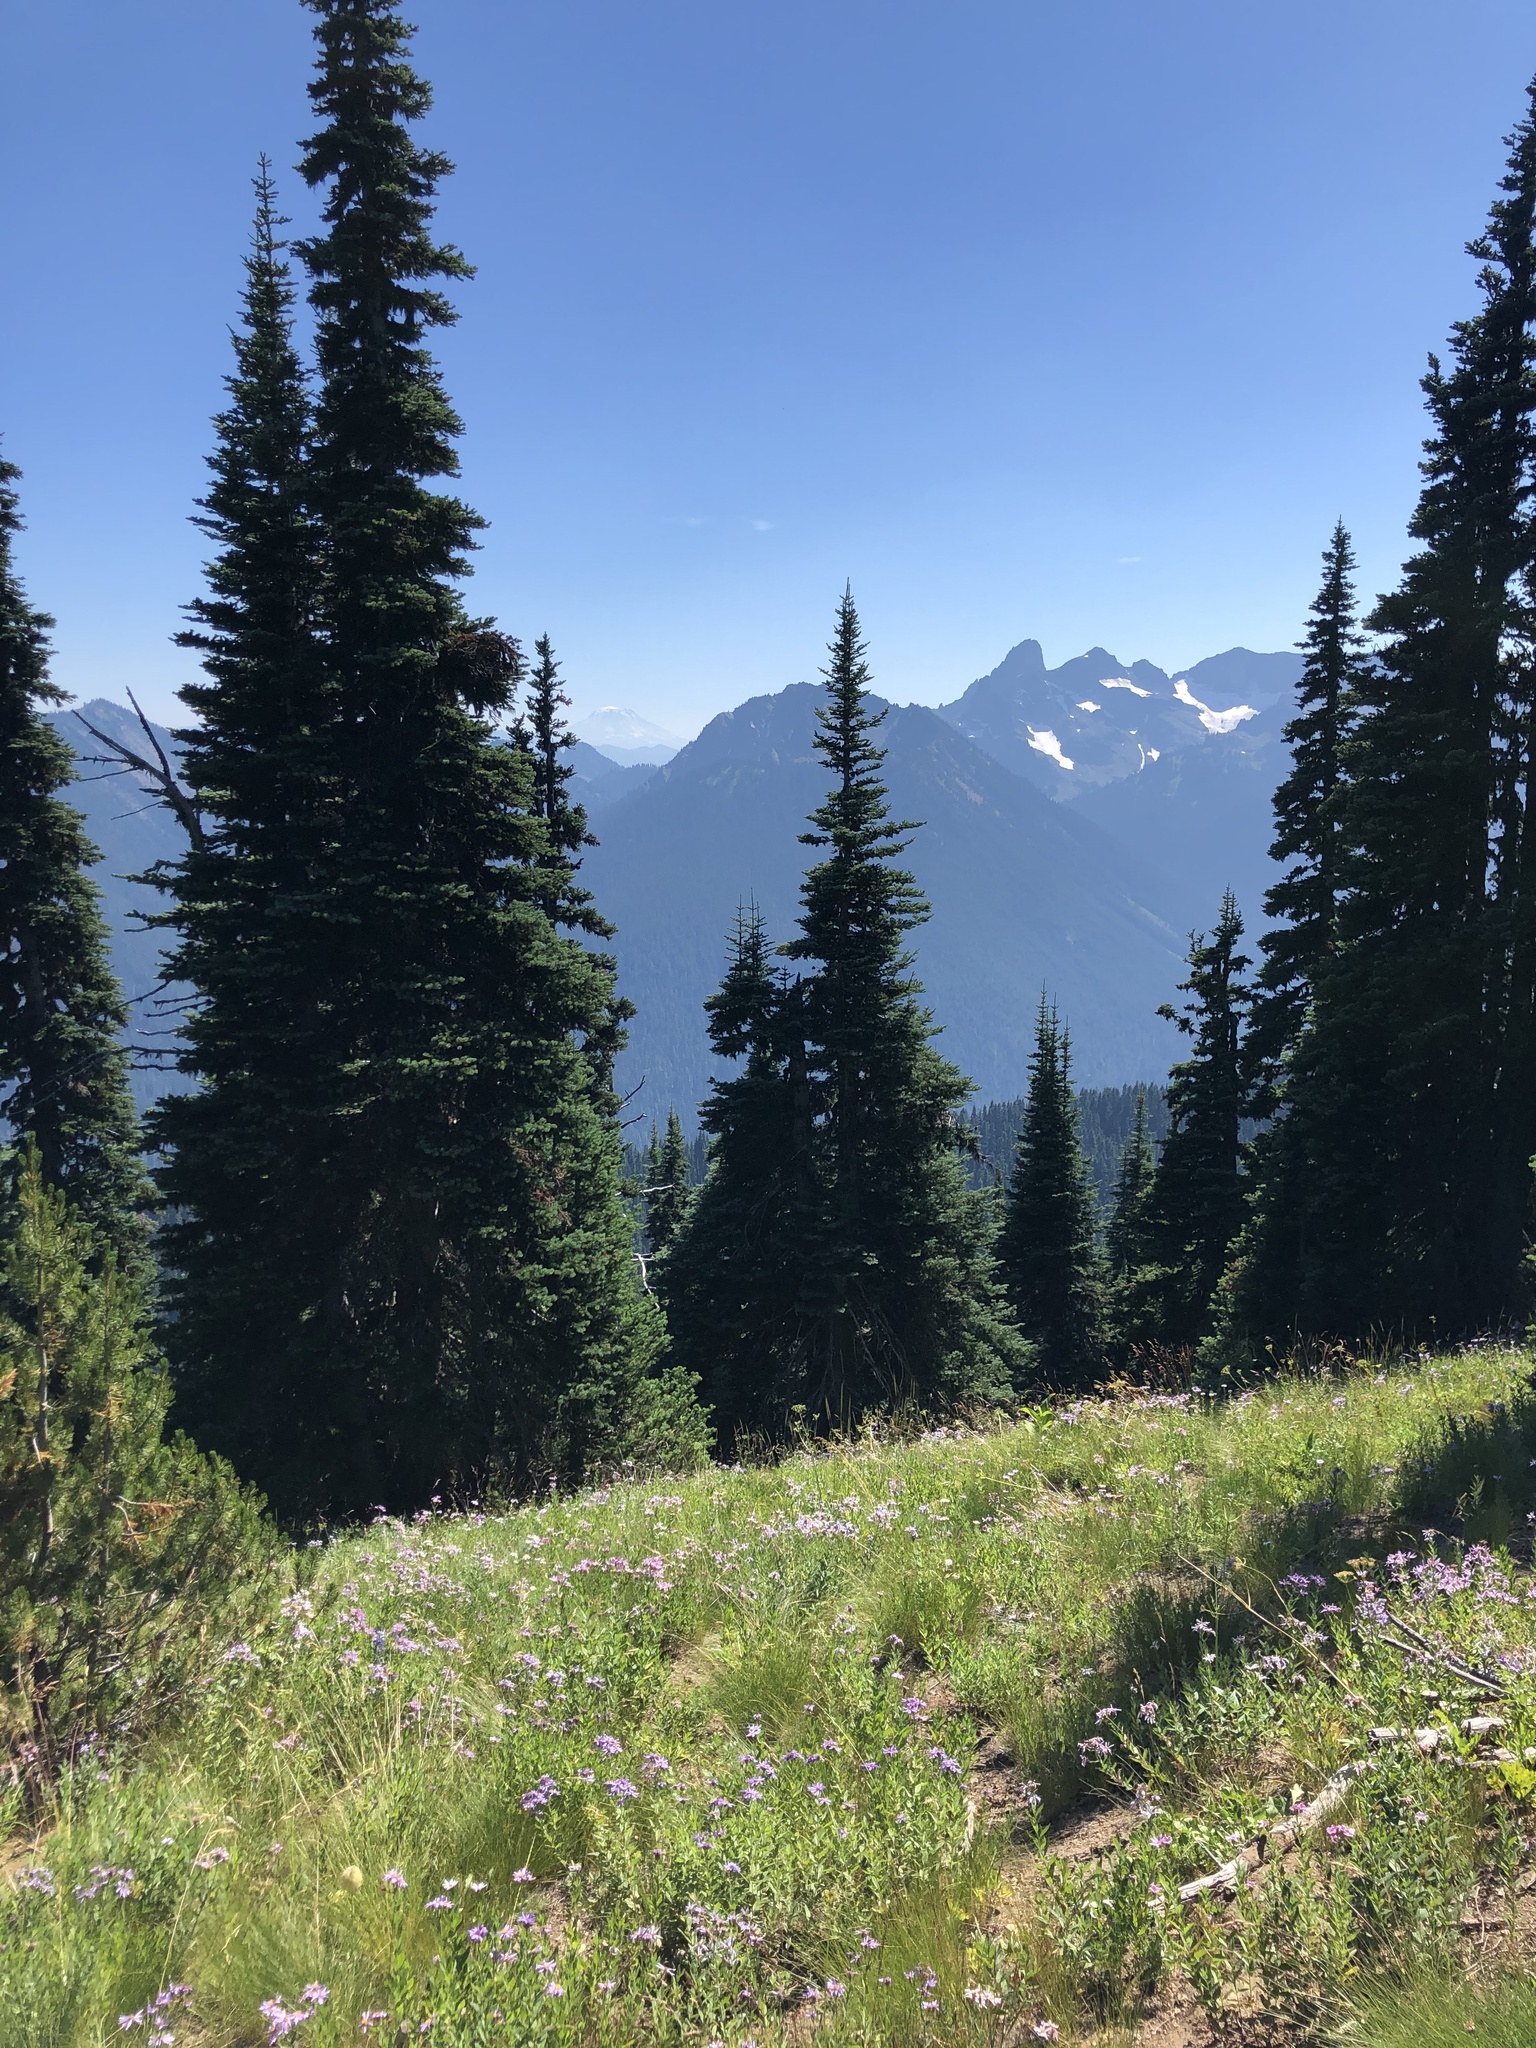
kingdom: Plantae
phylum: Tracheophyta
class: Pinopsida
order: Pinales
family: Pinaceae
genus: Abies
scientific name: Abies lasiocarpa
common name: Subalpine fir
